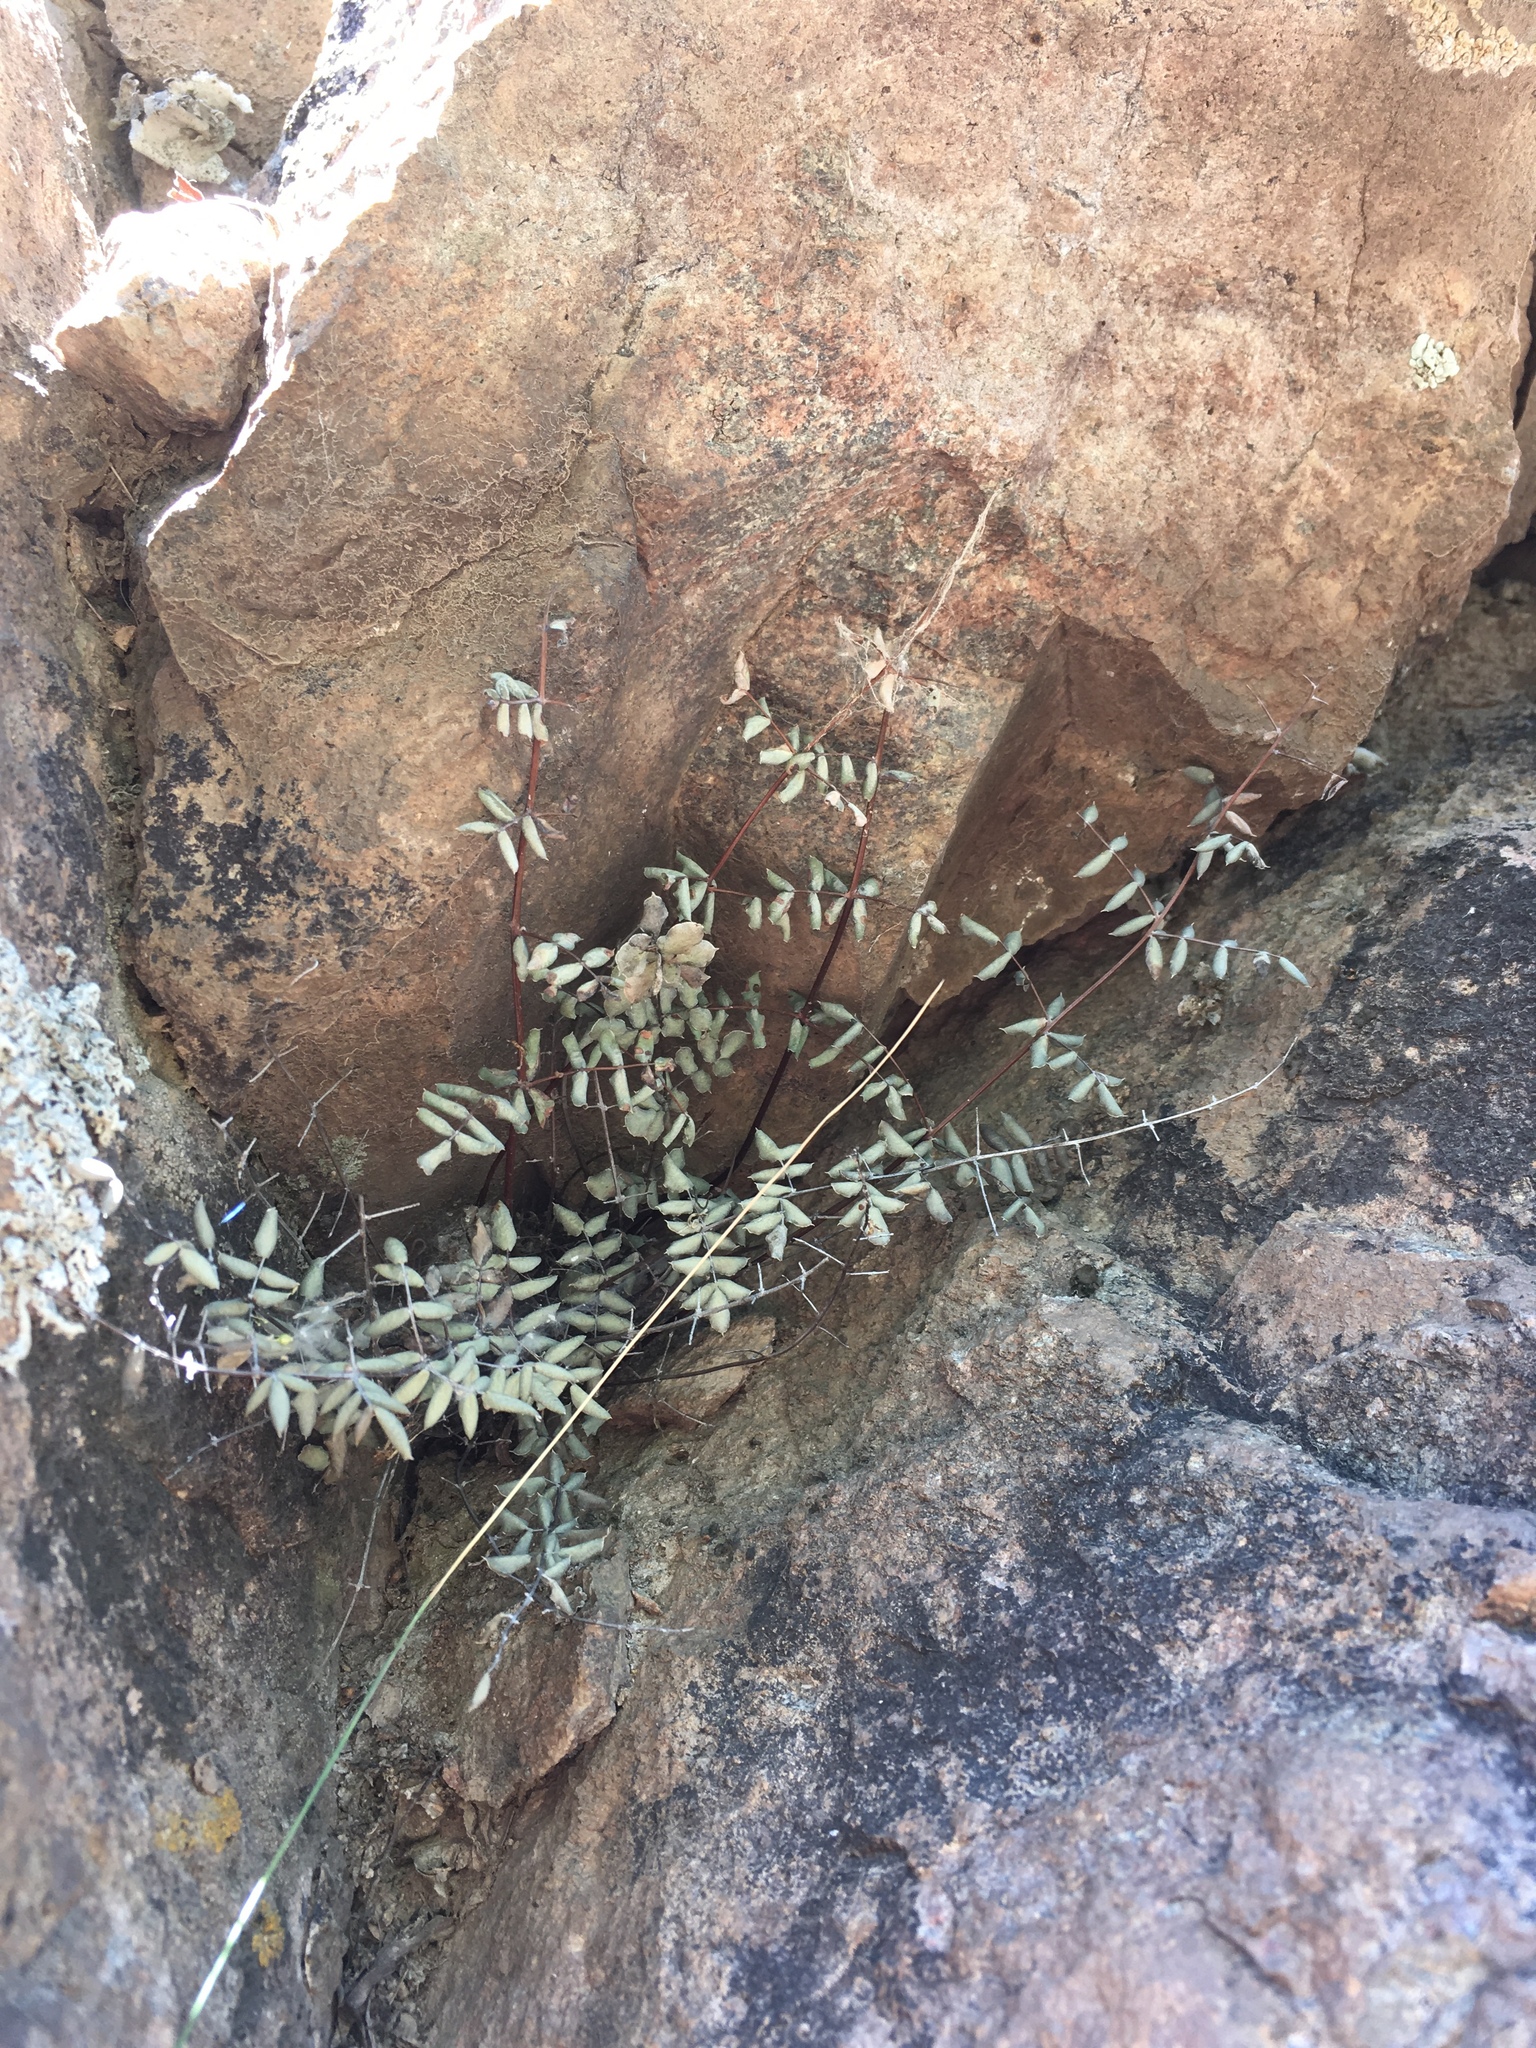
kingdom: Plantae
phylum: Tracheophyta
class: Polypodiopsida
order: Polypodiales
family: Pteridaceae
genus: Pellaea
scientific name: Pellaea truncata
